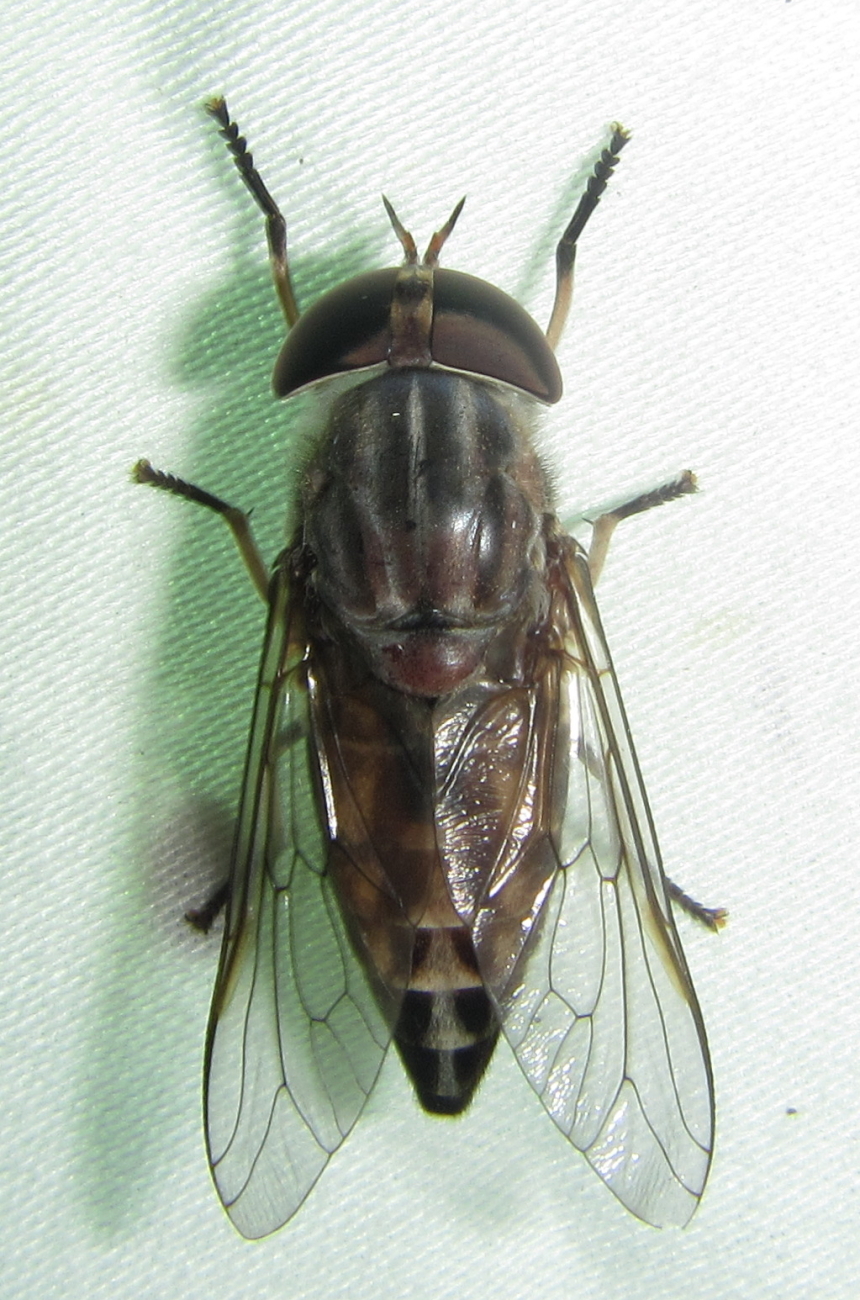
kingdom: Animalia
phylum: Arthropoda
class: Insecta
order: Diptera
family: Tabanidae
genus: Tabanus
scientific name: Tabanus taeniola
